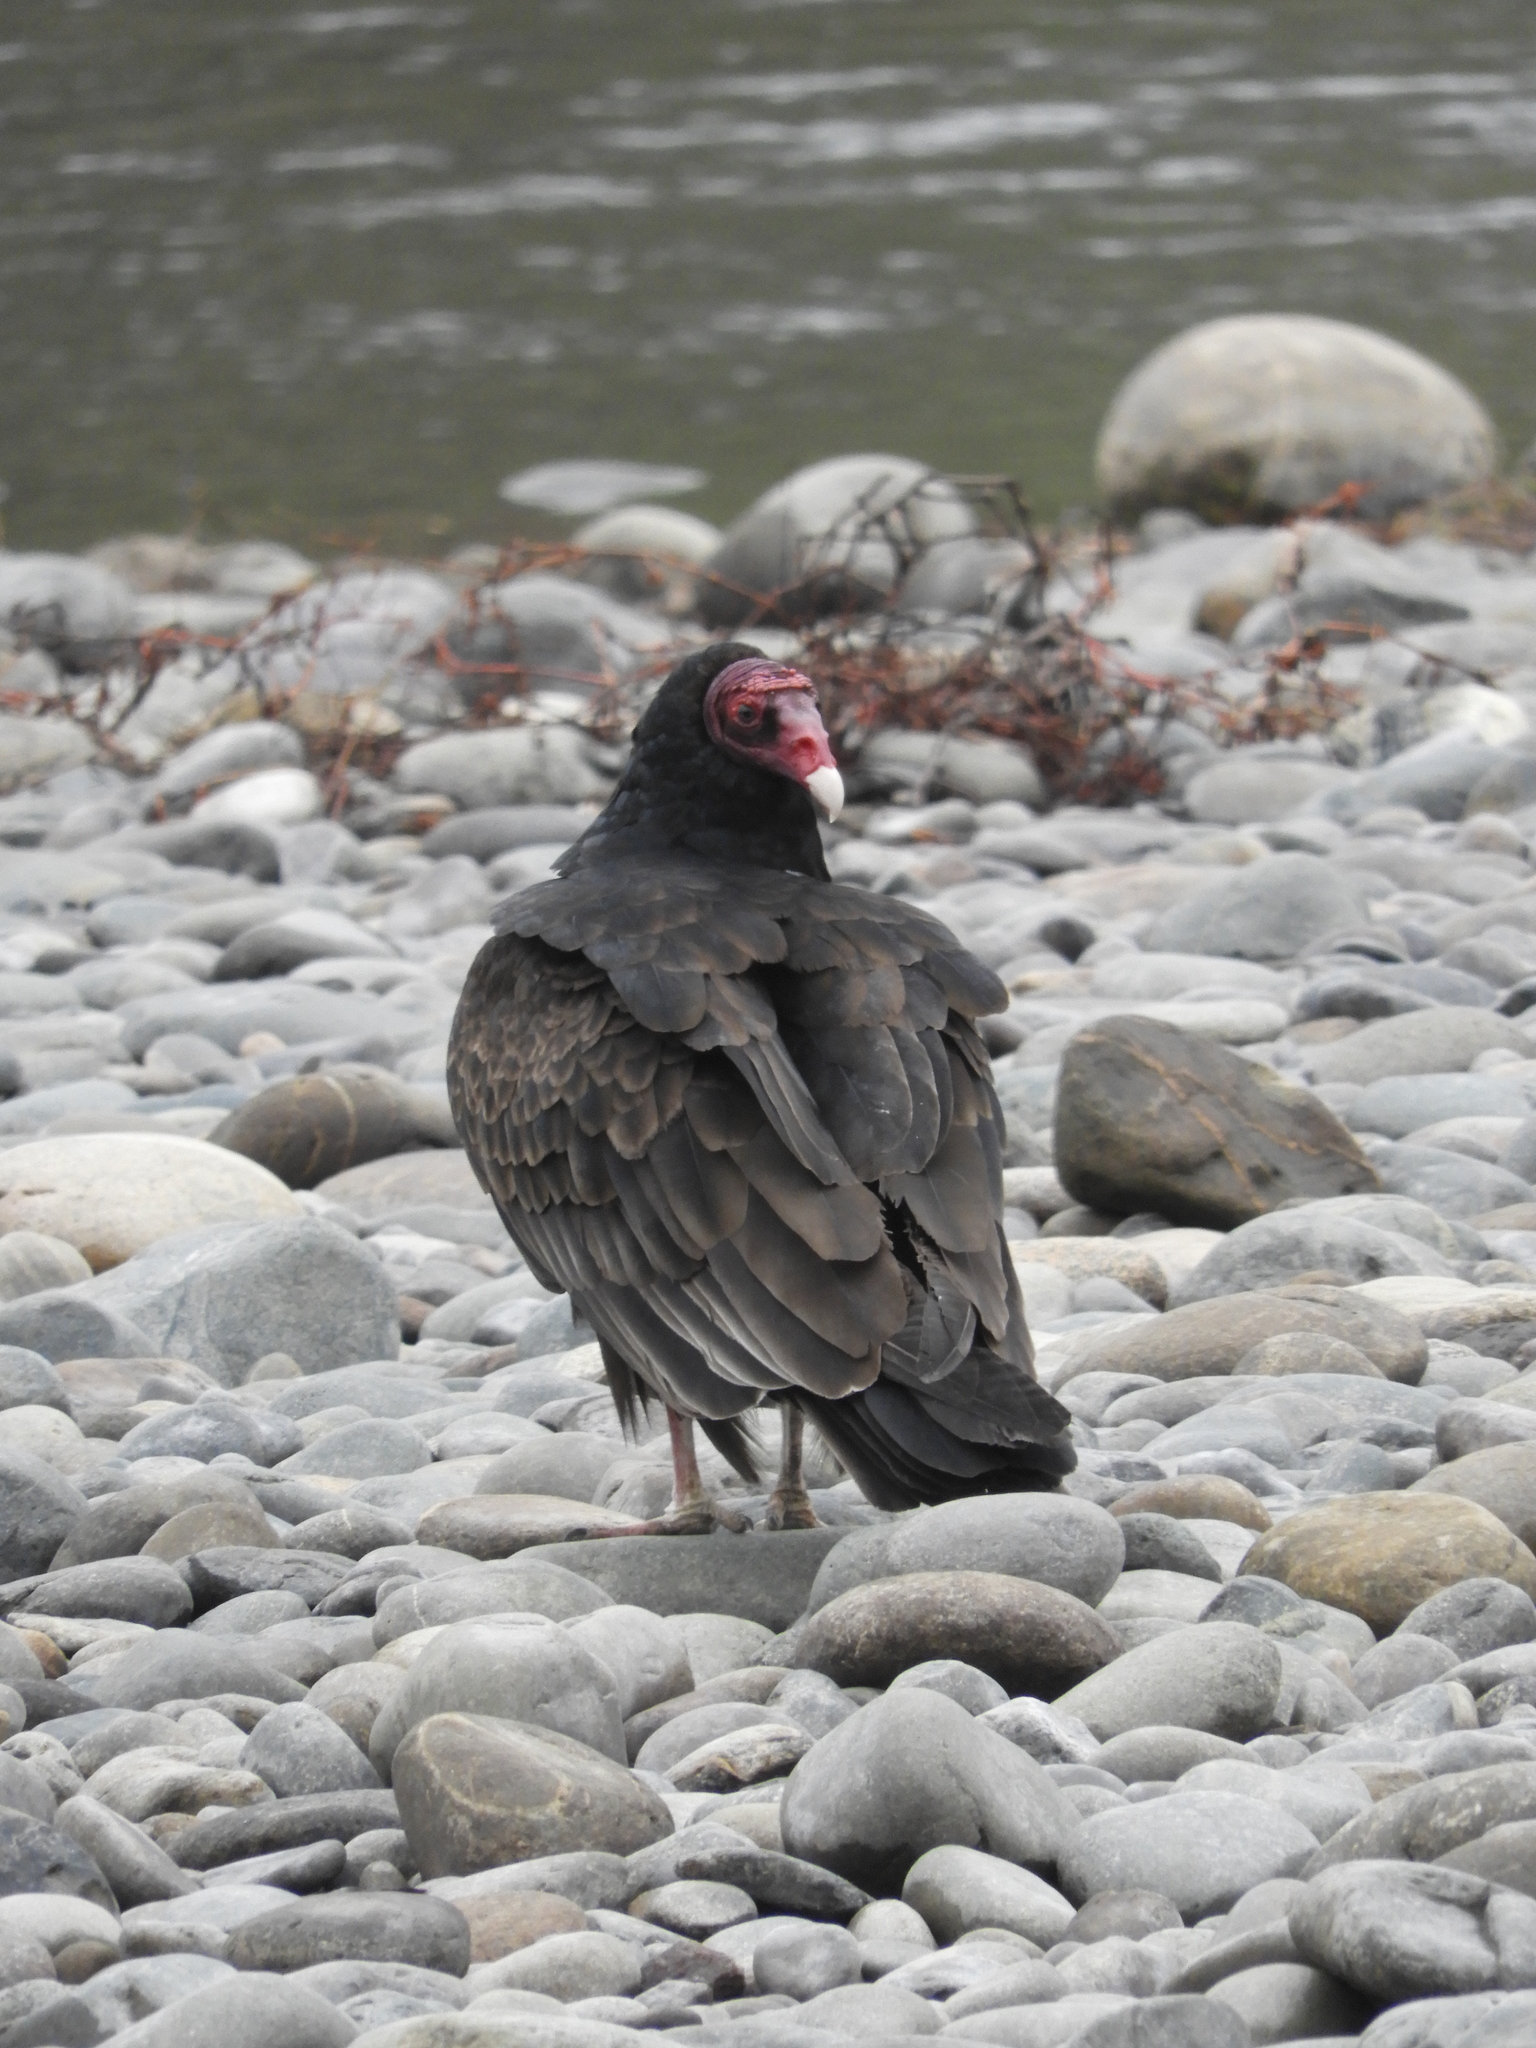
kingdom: Animalia
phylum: Chordata
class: Aves
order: Accipitriformes
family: Cathartidae
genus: Cathartes
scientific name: Cathartes aura
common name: Turkey vulture
